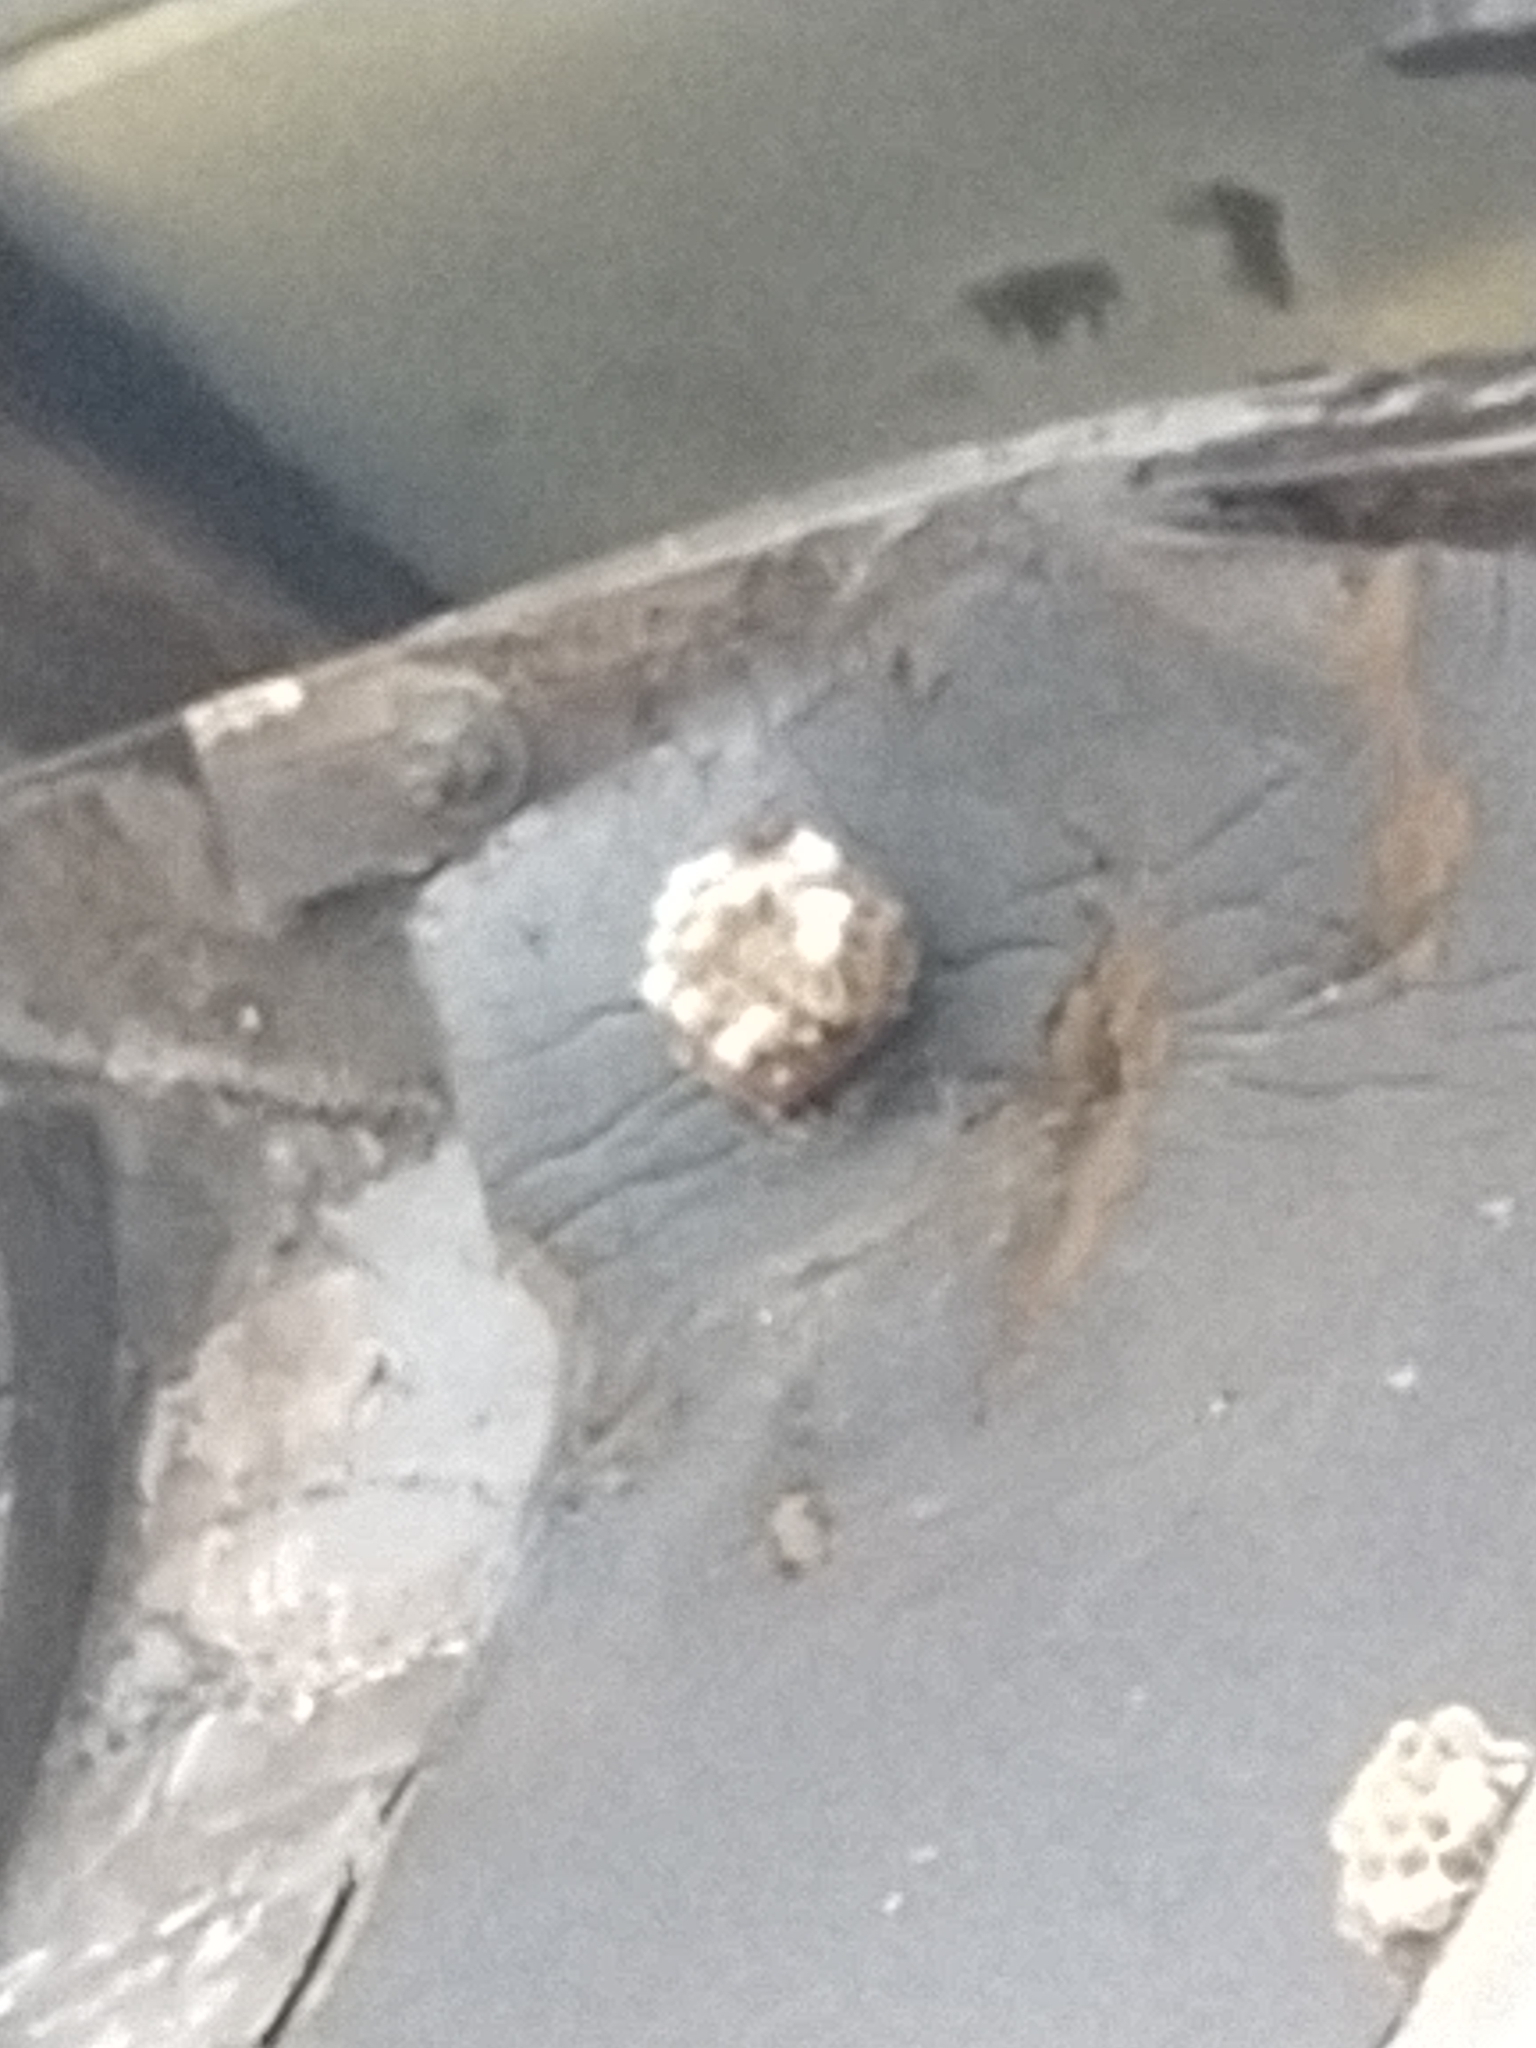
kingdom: Animalia
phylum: Arthropoda
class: Insecta
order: Hymenoptera
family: Eumenidae
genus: Polistes
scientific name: Polistes fuscatus
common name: Dark paper wasp
